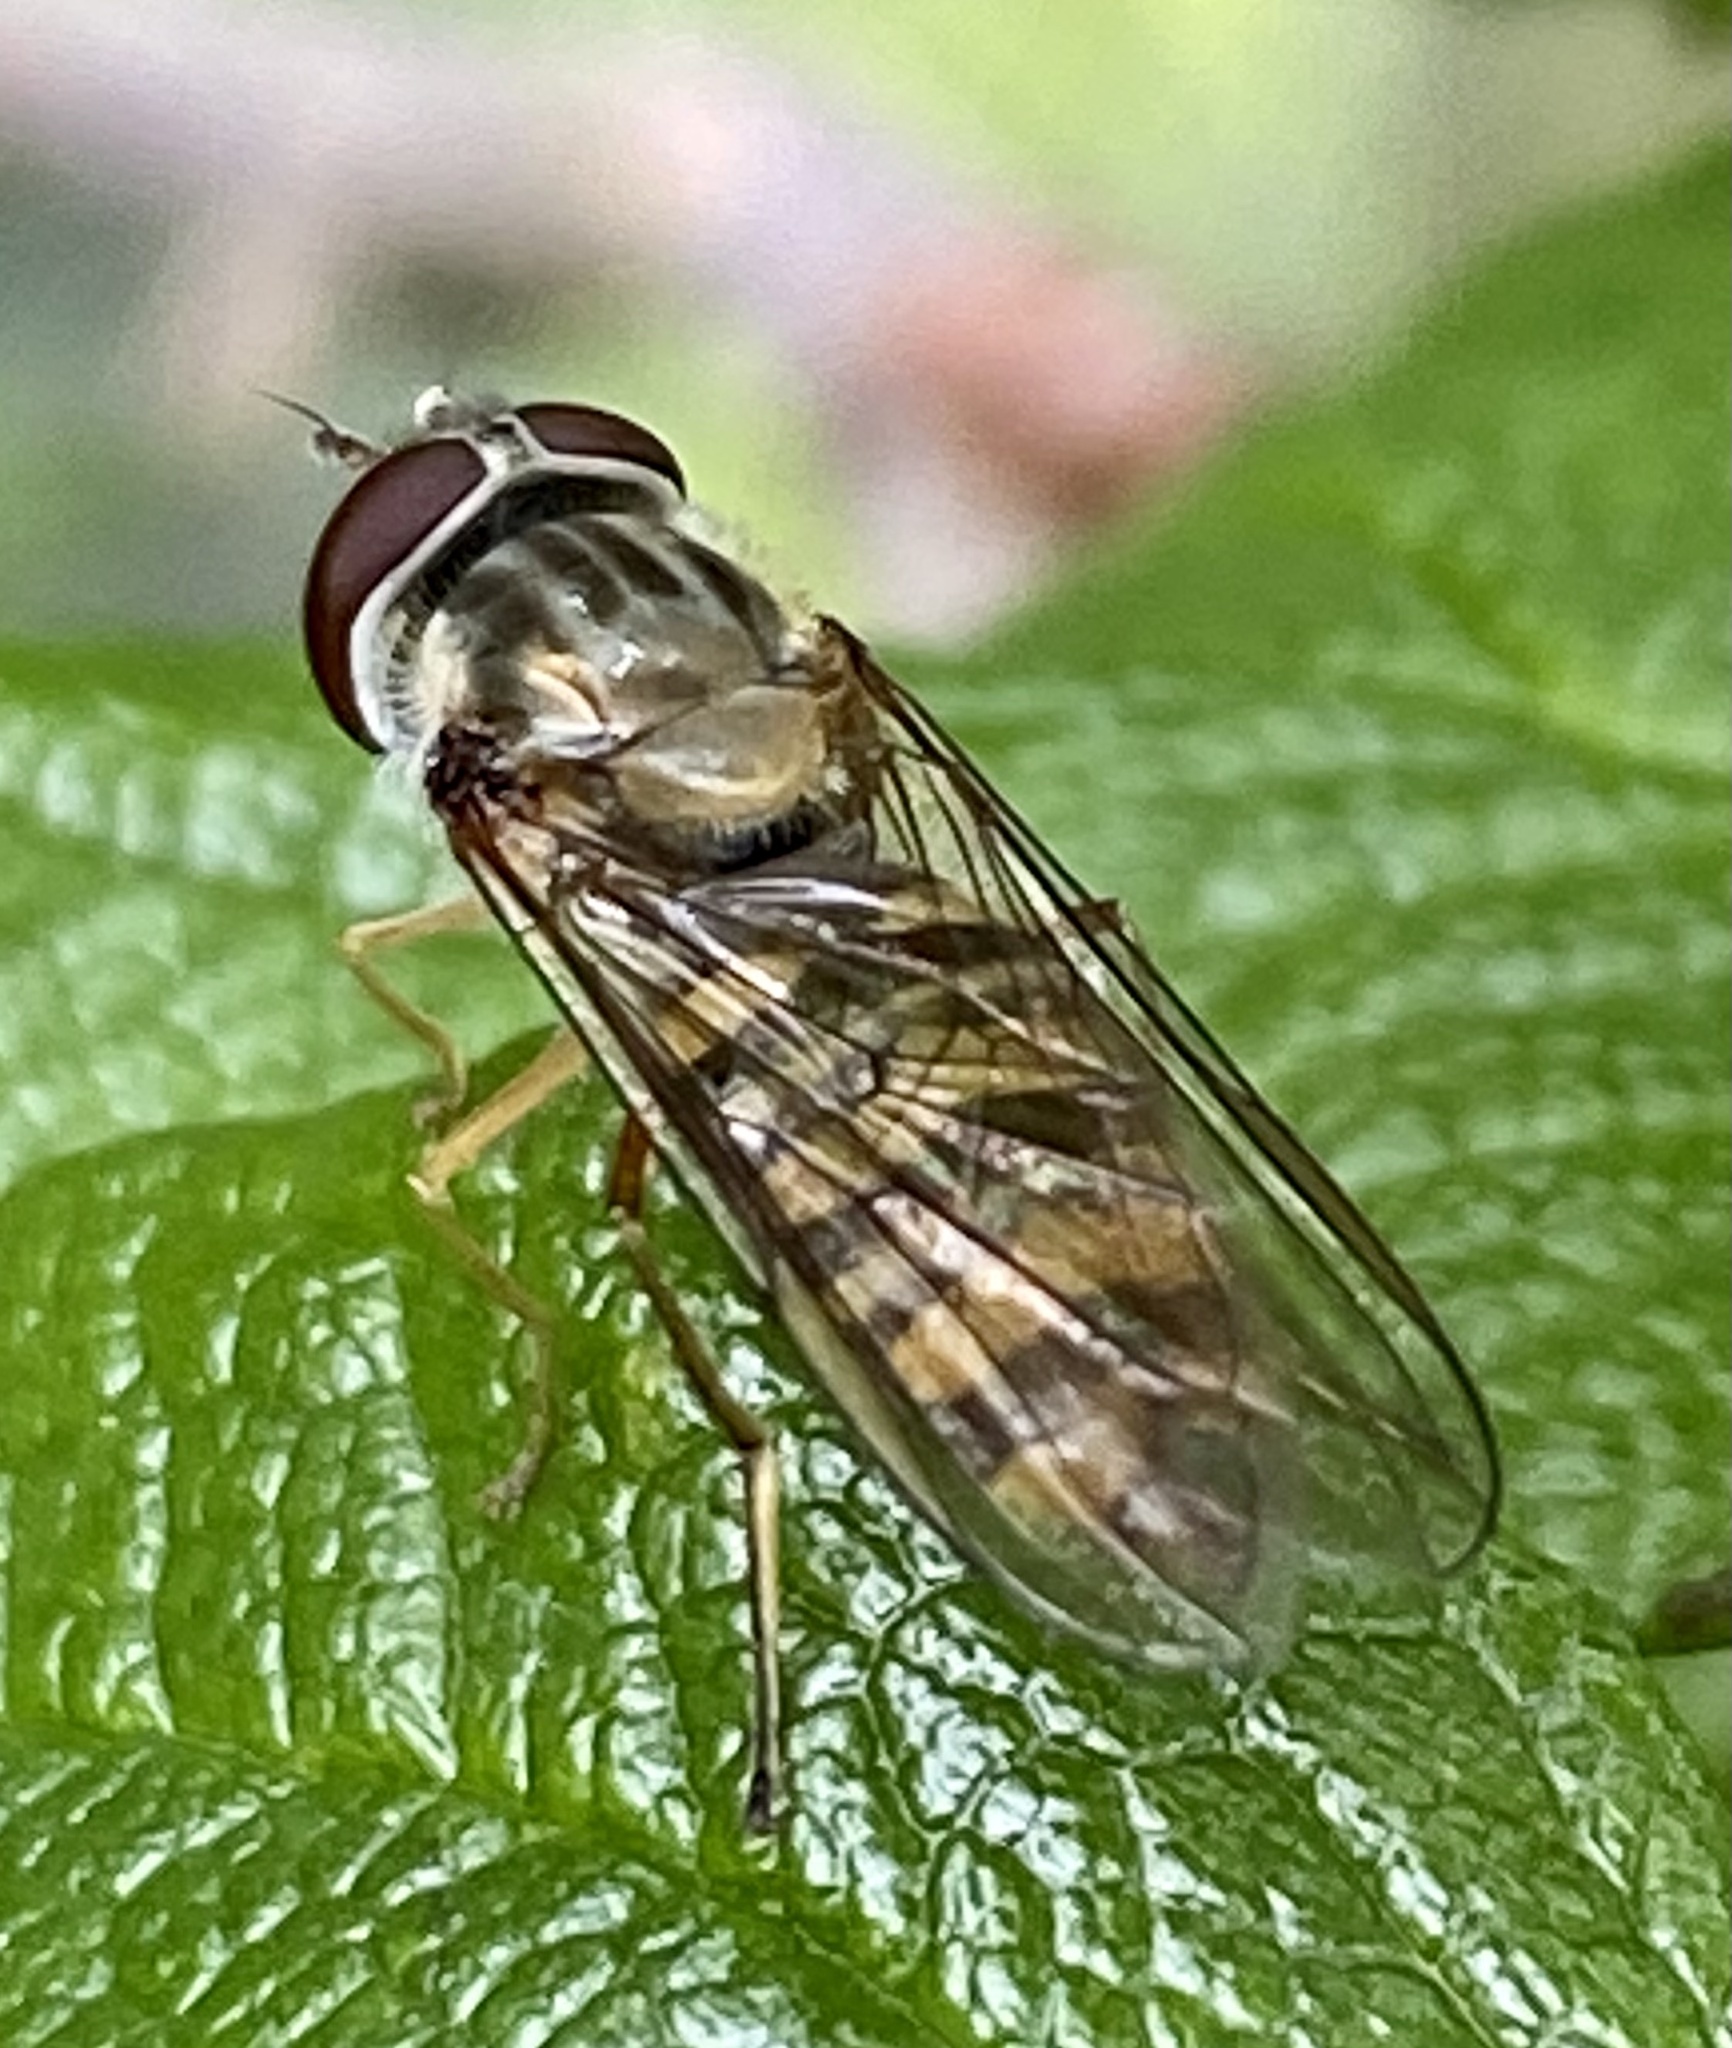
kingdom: Animalia
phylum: Arthropoda
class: Insecta
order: Diptera
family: Syrphidae
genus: Episyrphus
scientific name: Episyrphus balteatus
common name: Marmalade hoverfly
